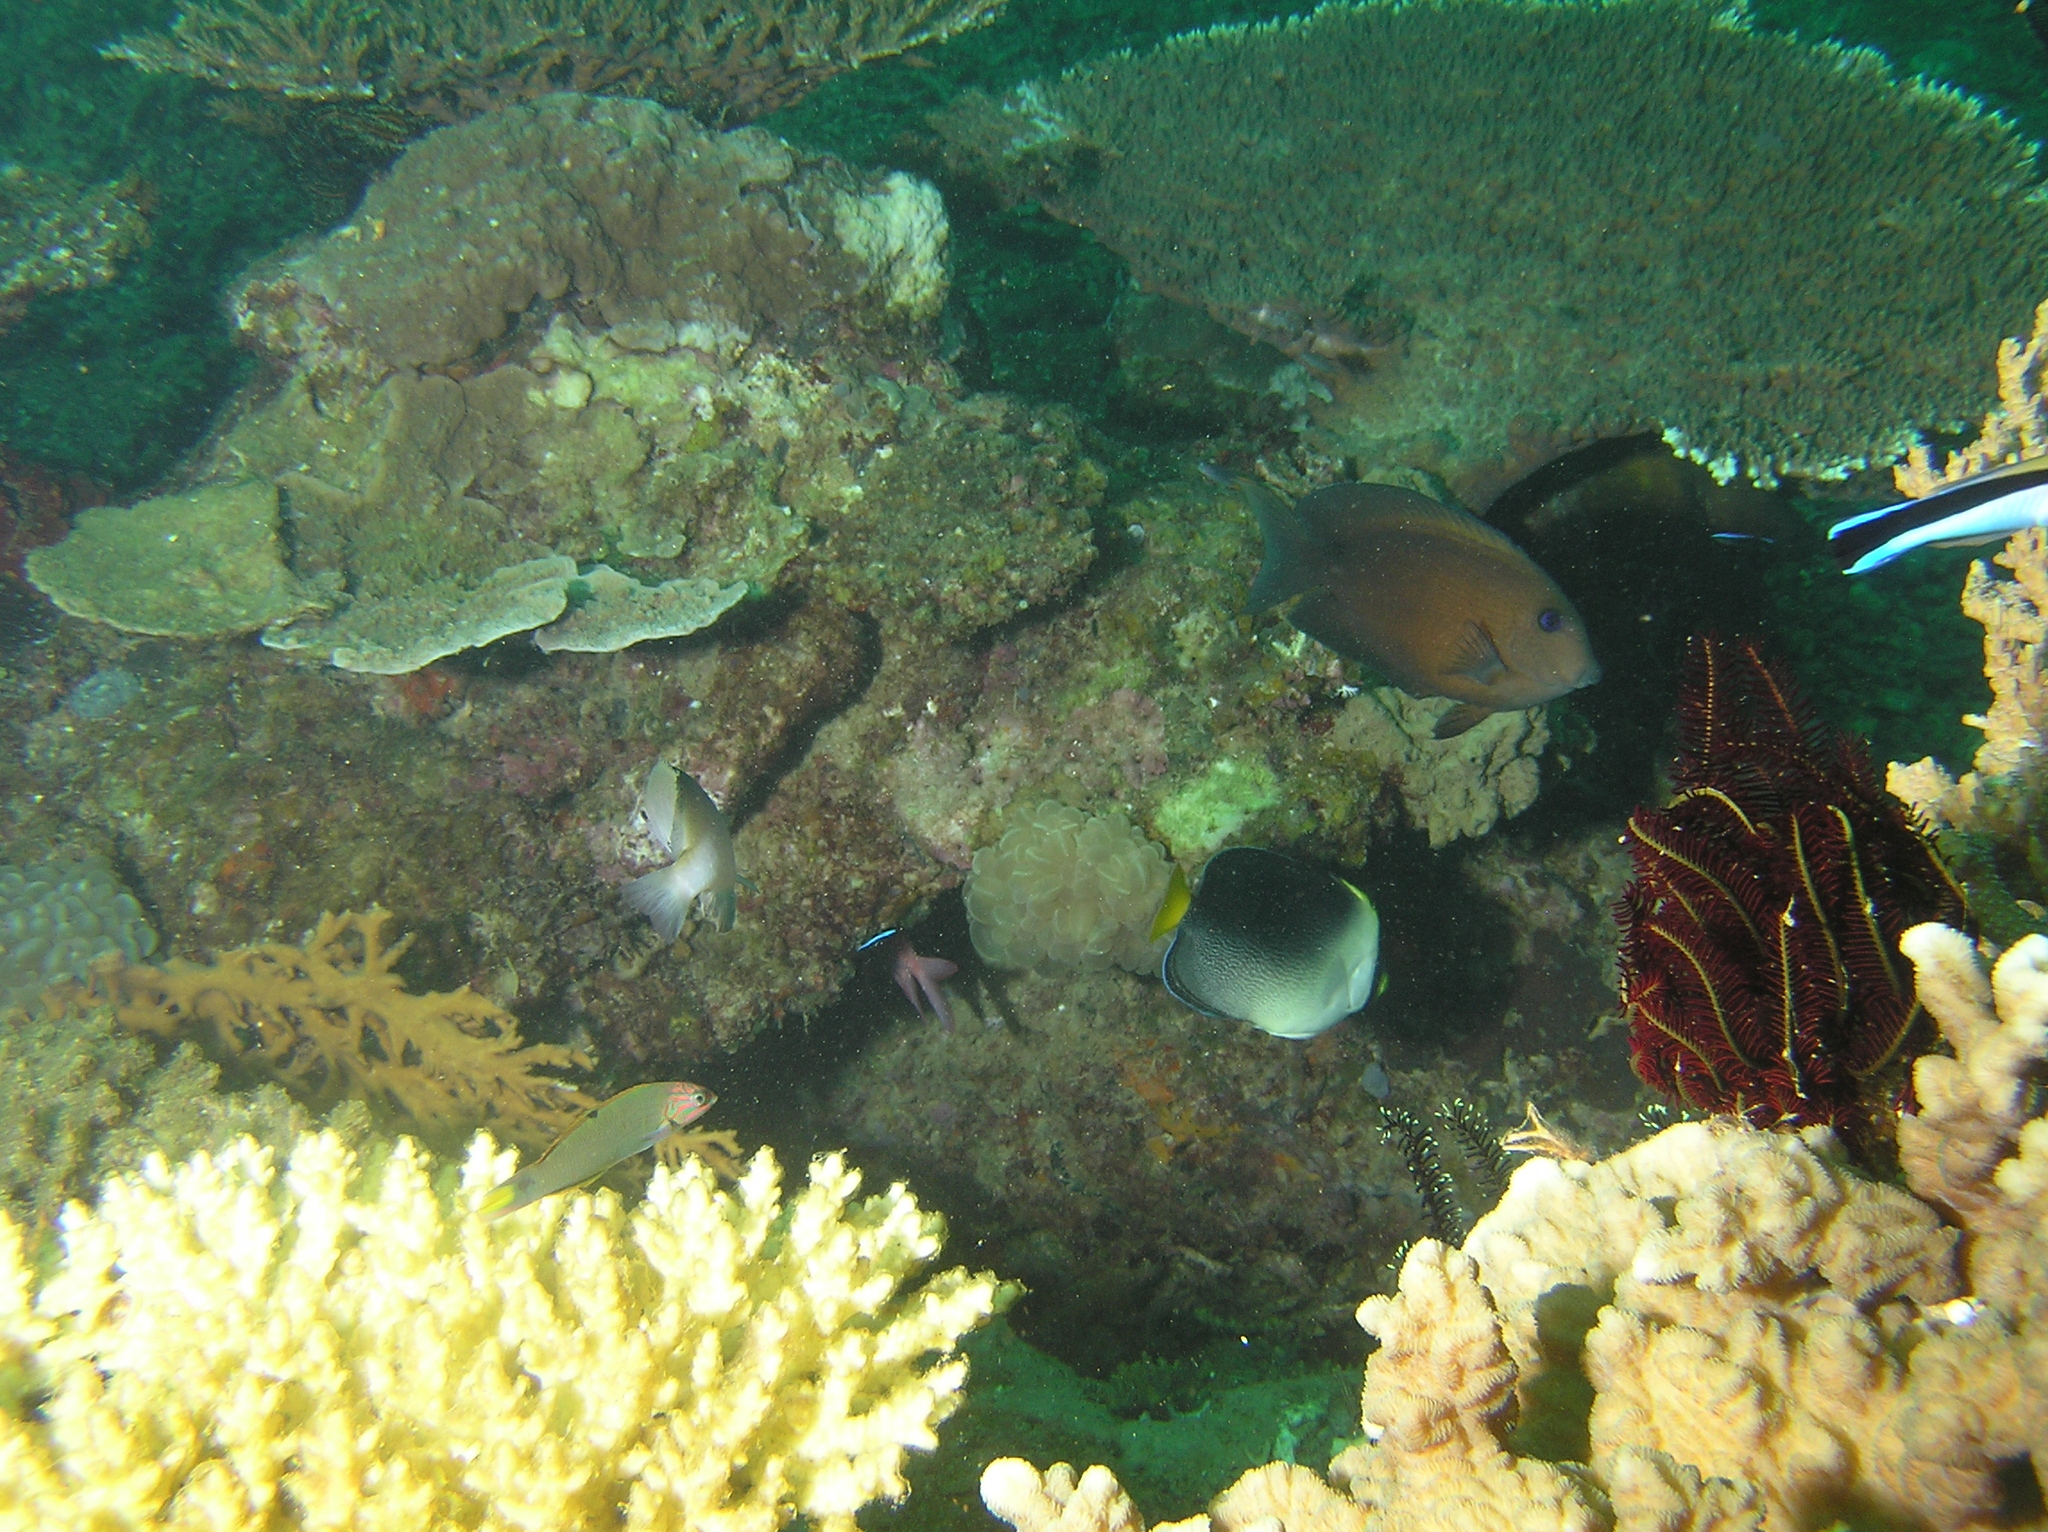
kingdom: Animalia
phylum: Chordata
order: Perciformes
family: Acanthuridae
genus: Ctenochaetus
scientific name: Ctenochaetus binotatus
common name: Two-spot bristletooth
